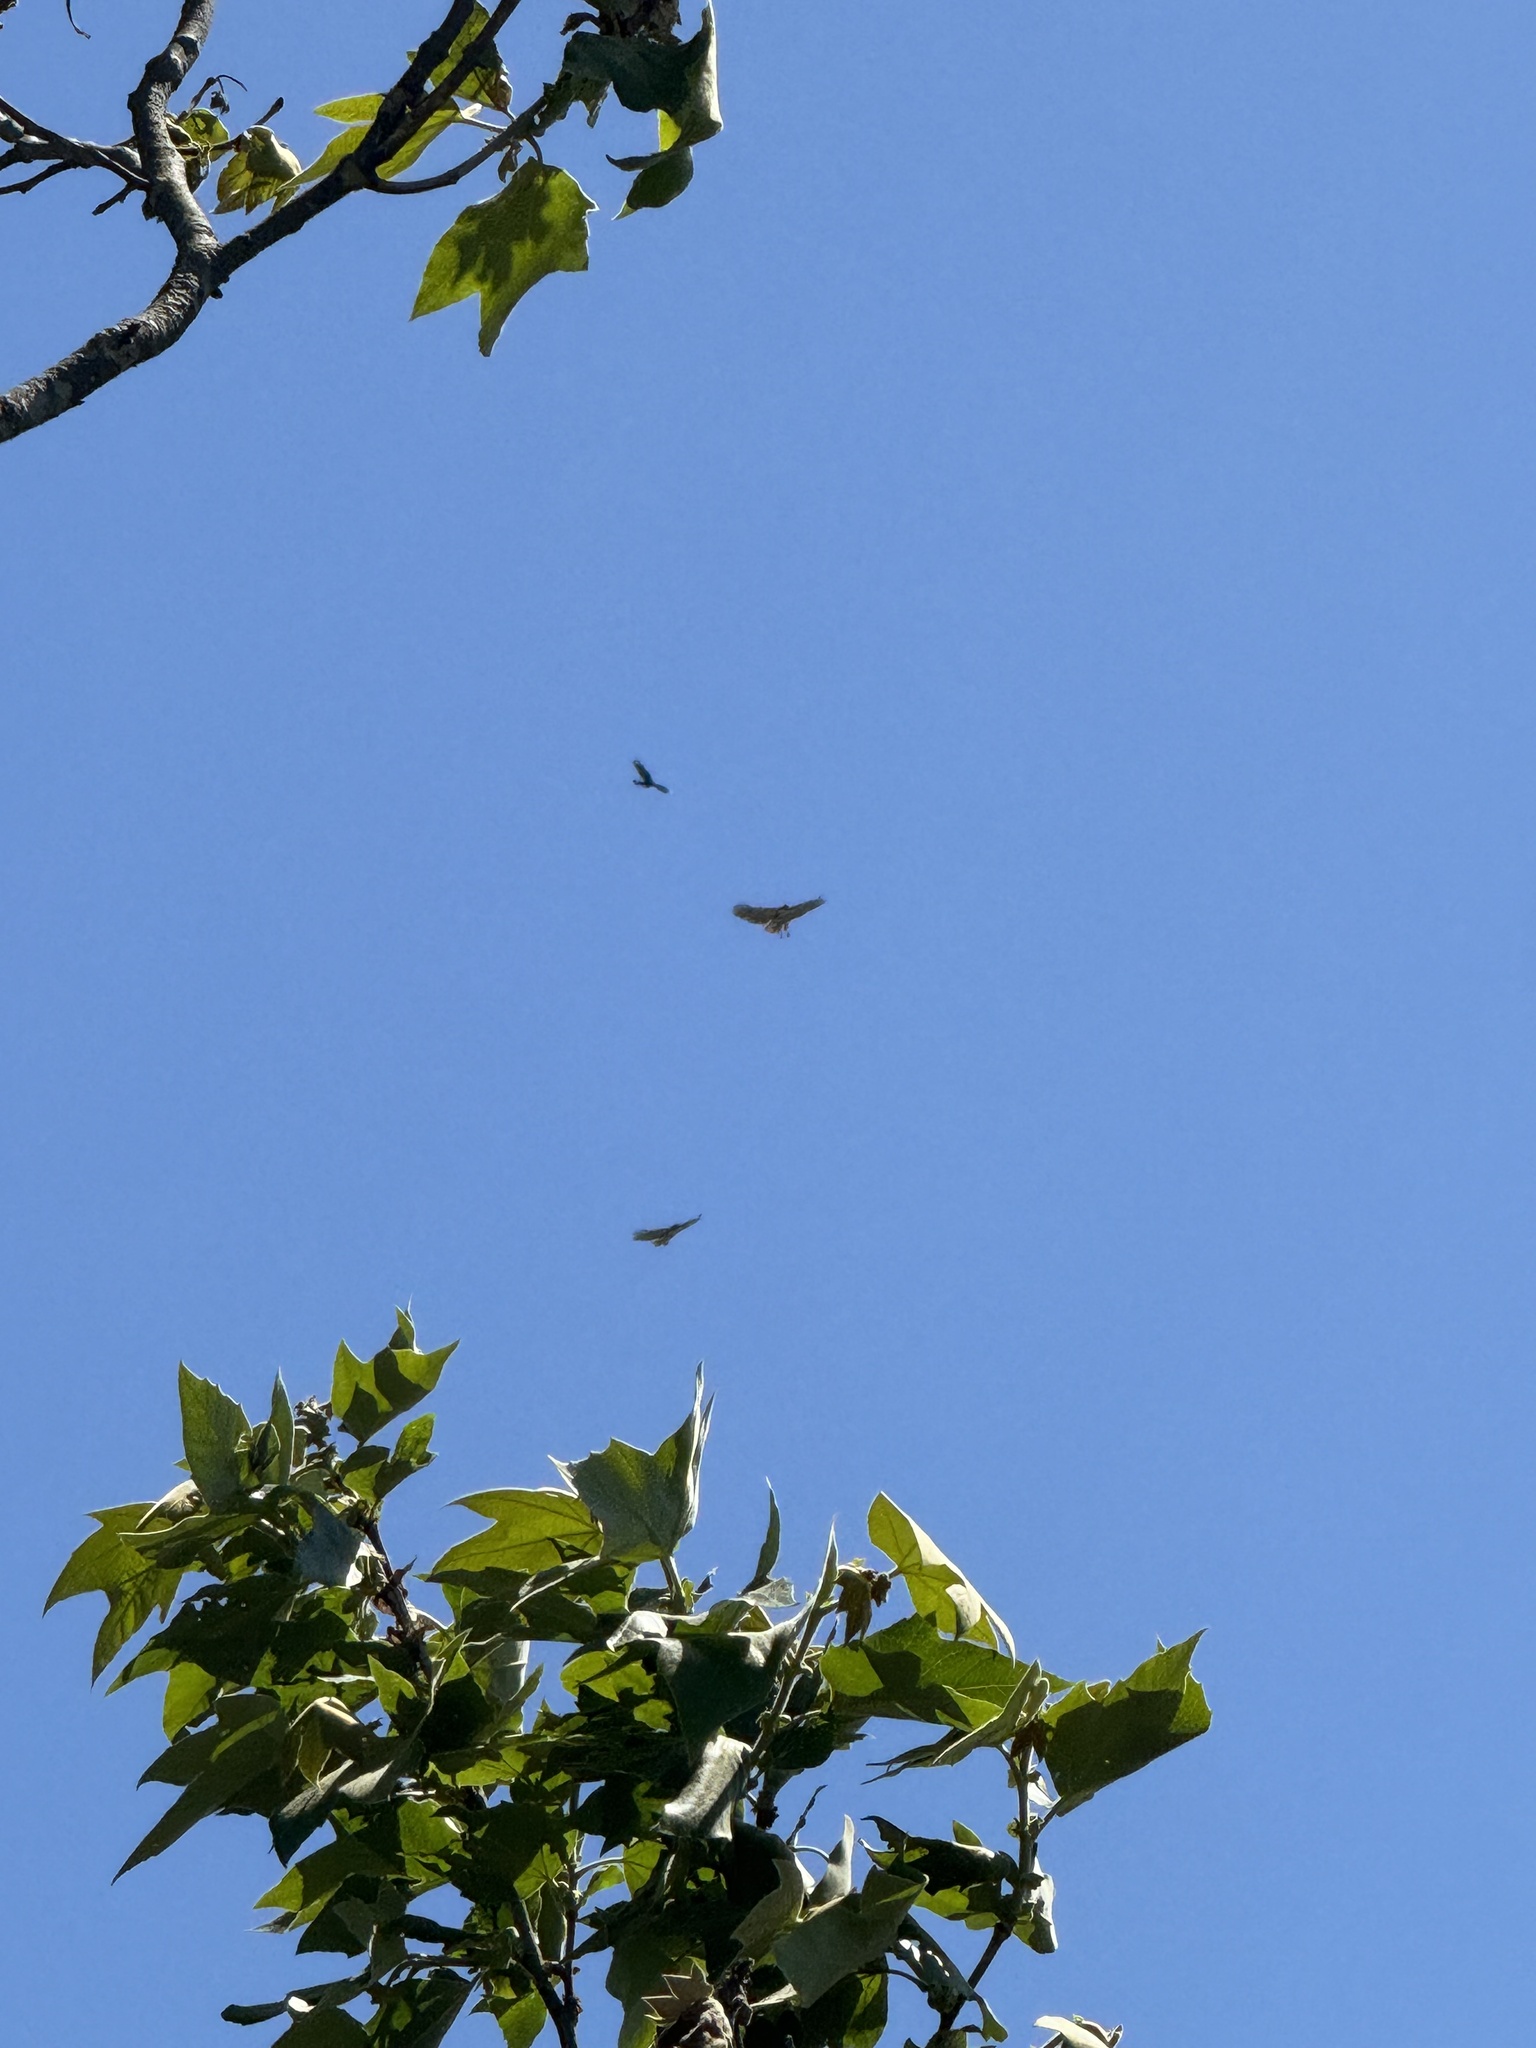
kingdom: Animalia
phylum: Chordata
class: Aves
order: Accipitriformes
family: Accipitridae
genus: Buteo
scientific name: Buteo jamaicensis
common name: Red-tailed hawk
